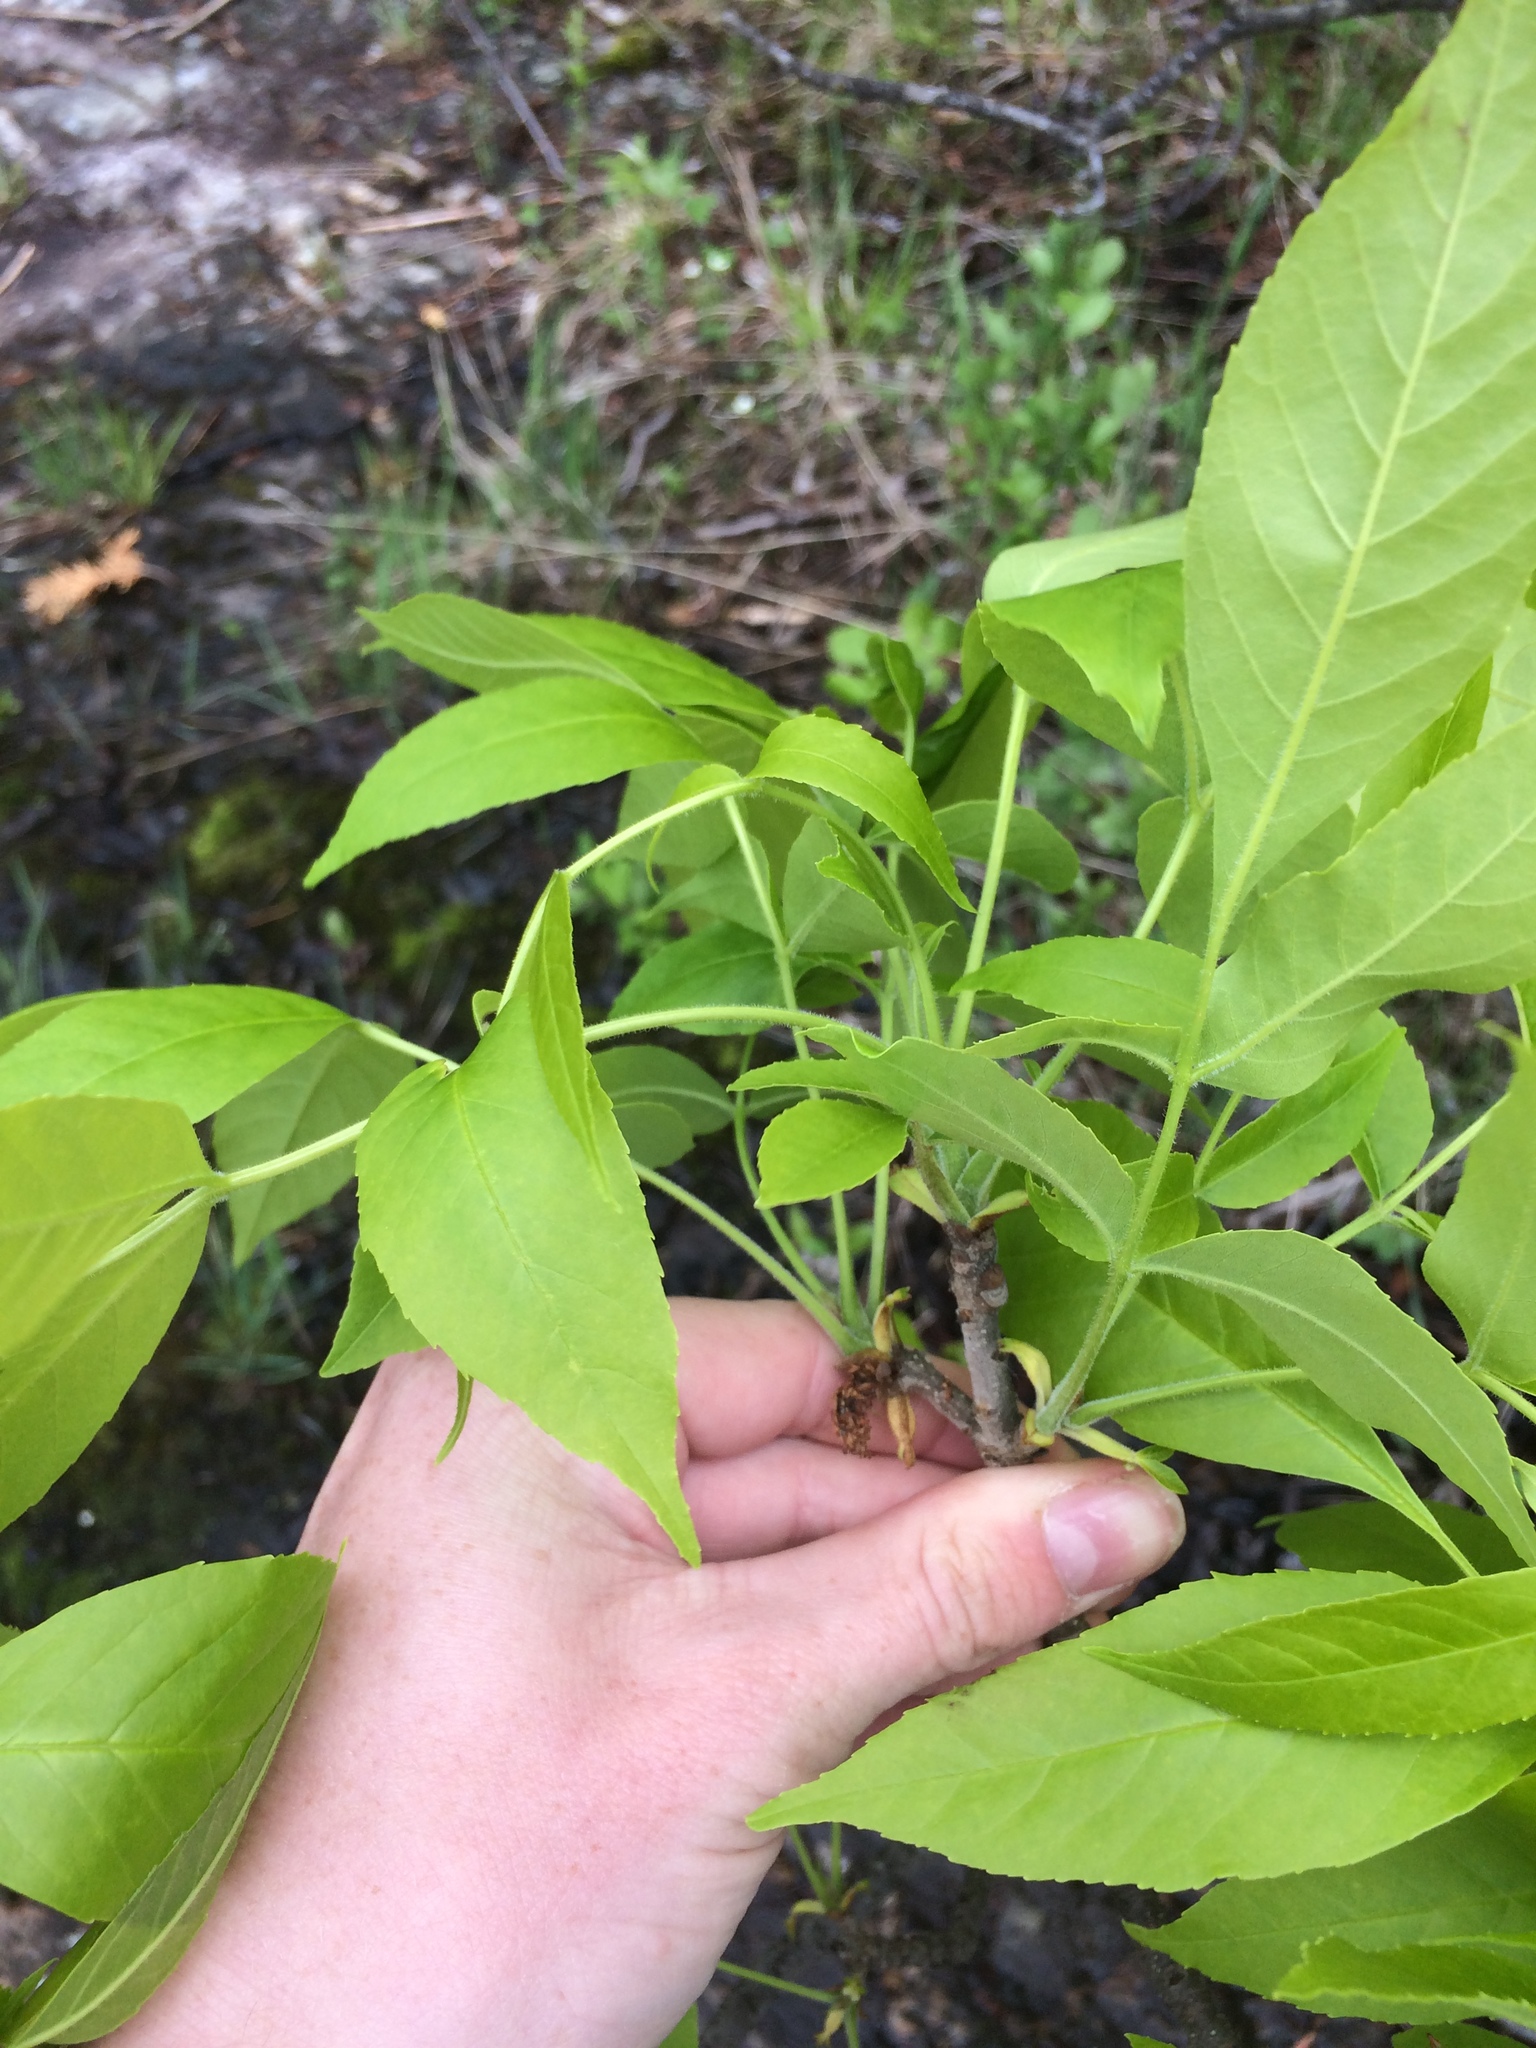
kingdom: Plantae
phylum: Tracheophyta
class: Magnoliopsida
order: Lamiales
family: Oleaceae
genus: Fraxinus
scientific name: Fraxinus pennsylvanica
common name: Green ash
